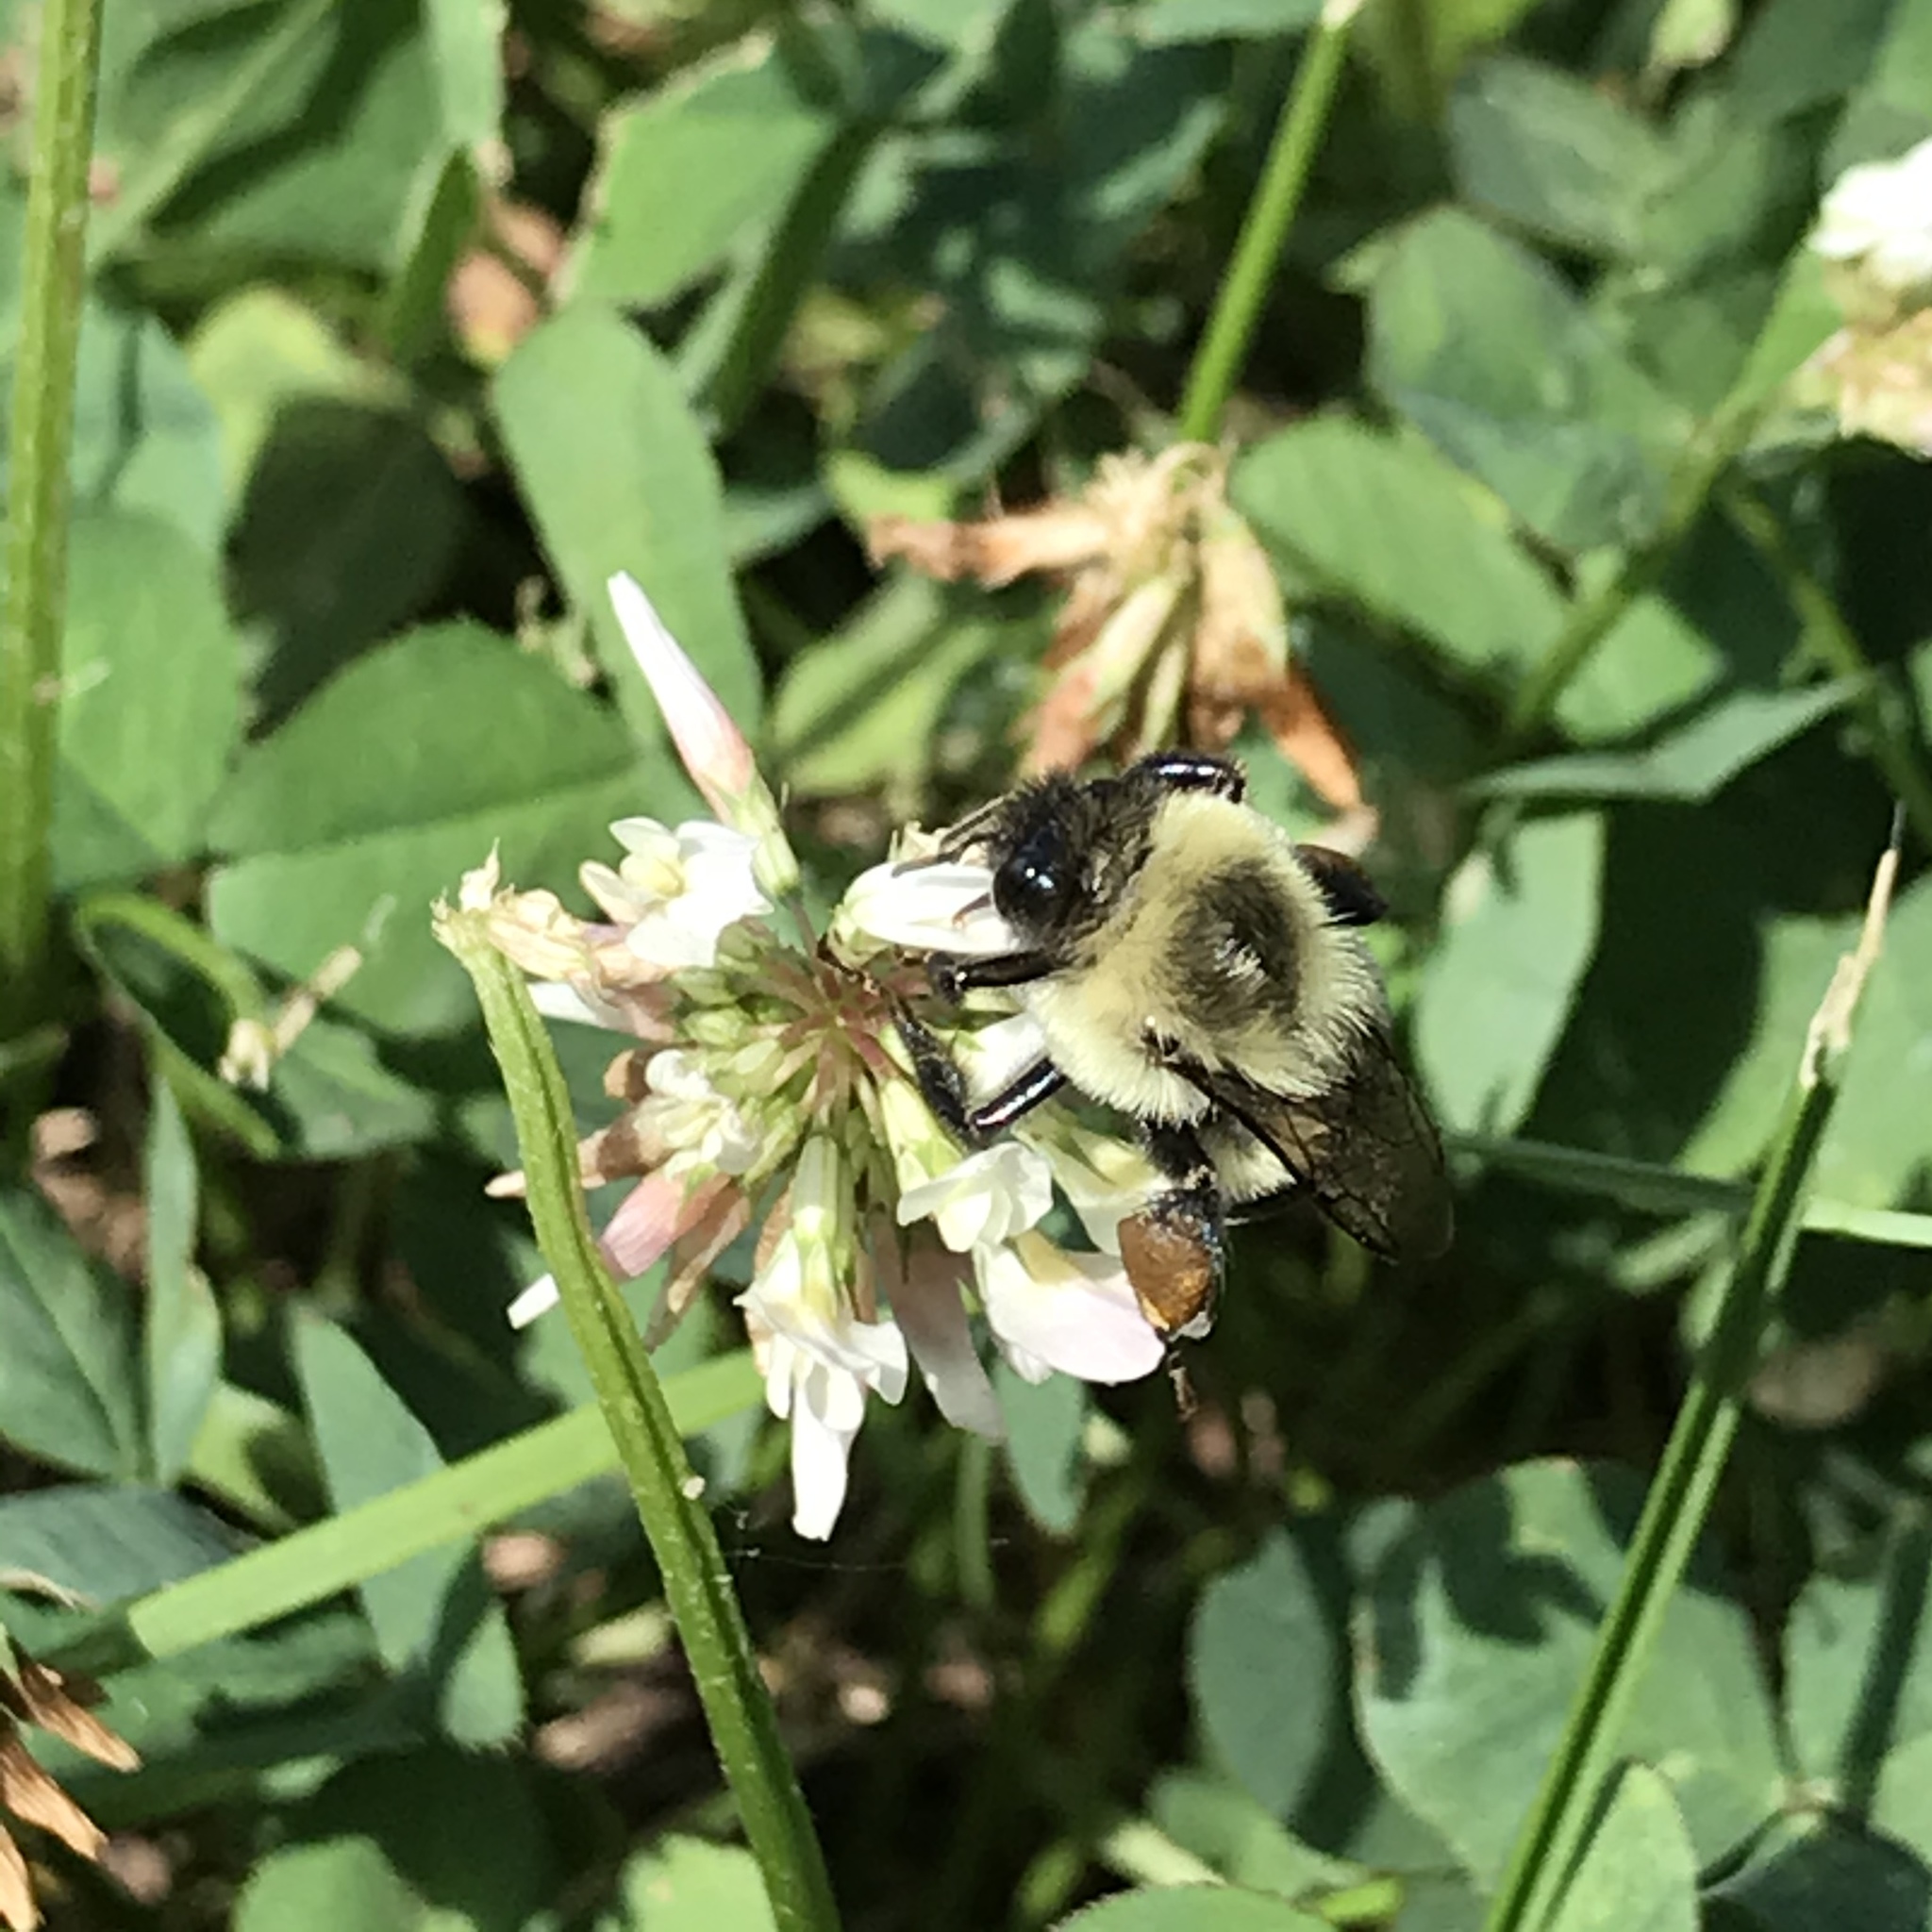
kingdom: Animalia
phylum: Arthropoda
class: Insecta
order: Hymenoptera
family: Apidae
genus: Bombus
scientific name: Bombus impatiens
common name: Common eastern bumble bee
